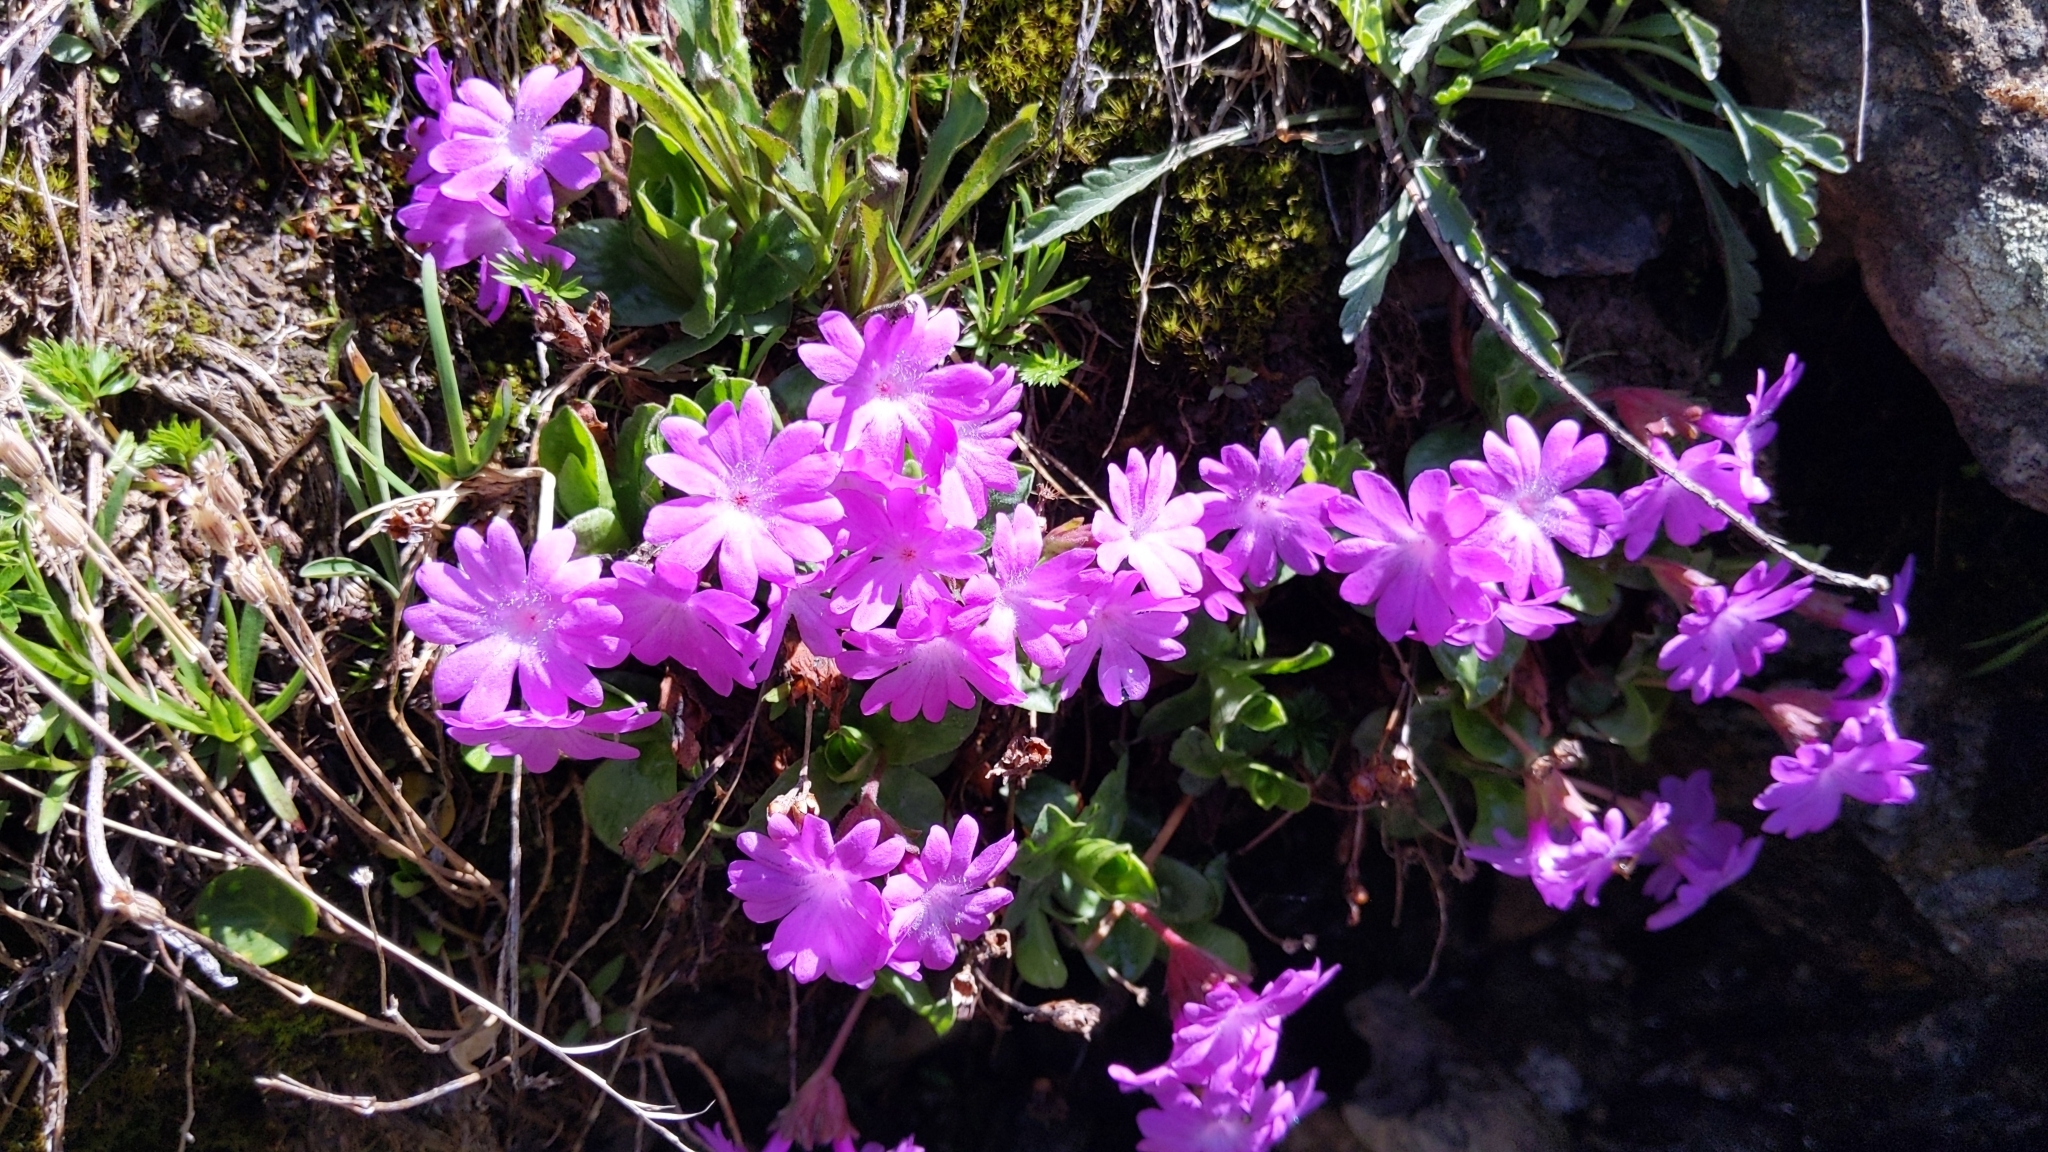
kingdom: Plantae
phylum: Tracheophyta
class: Magnoliopsida
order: Ericales
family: Primulaceae
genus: Primula
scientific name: Primula integrifolia
